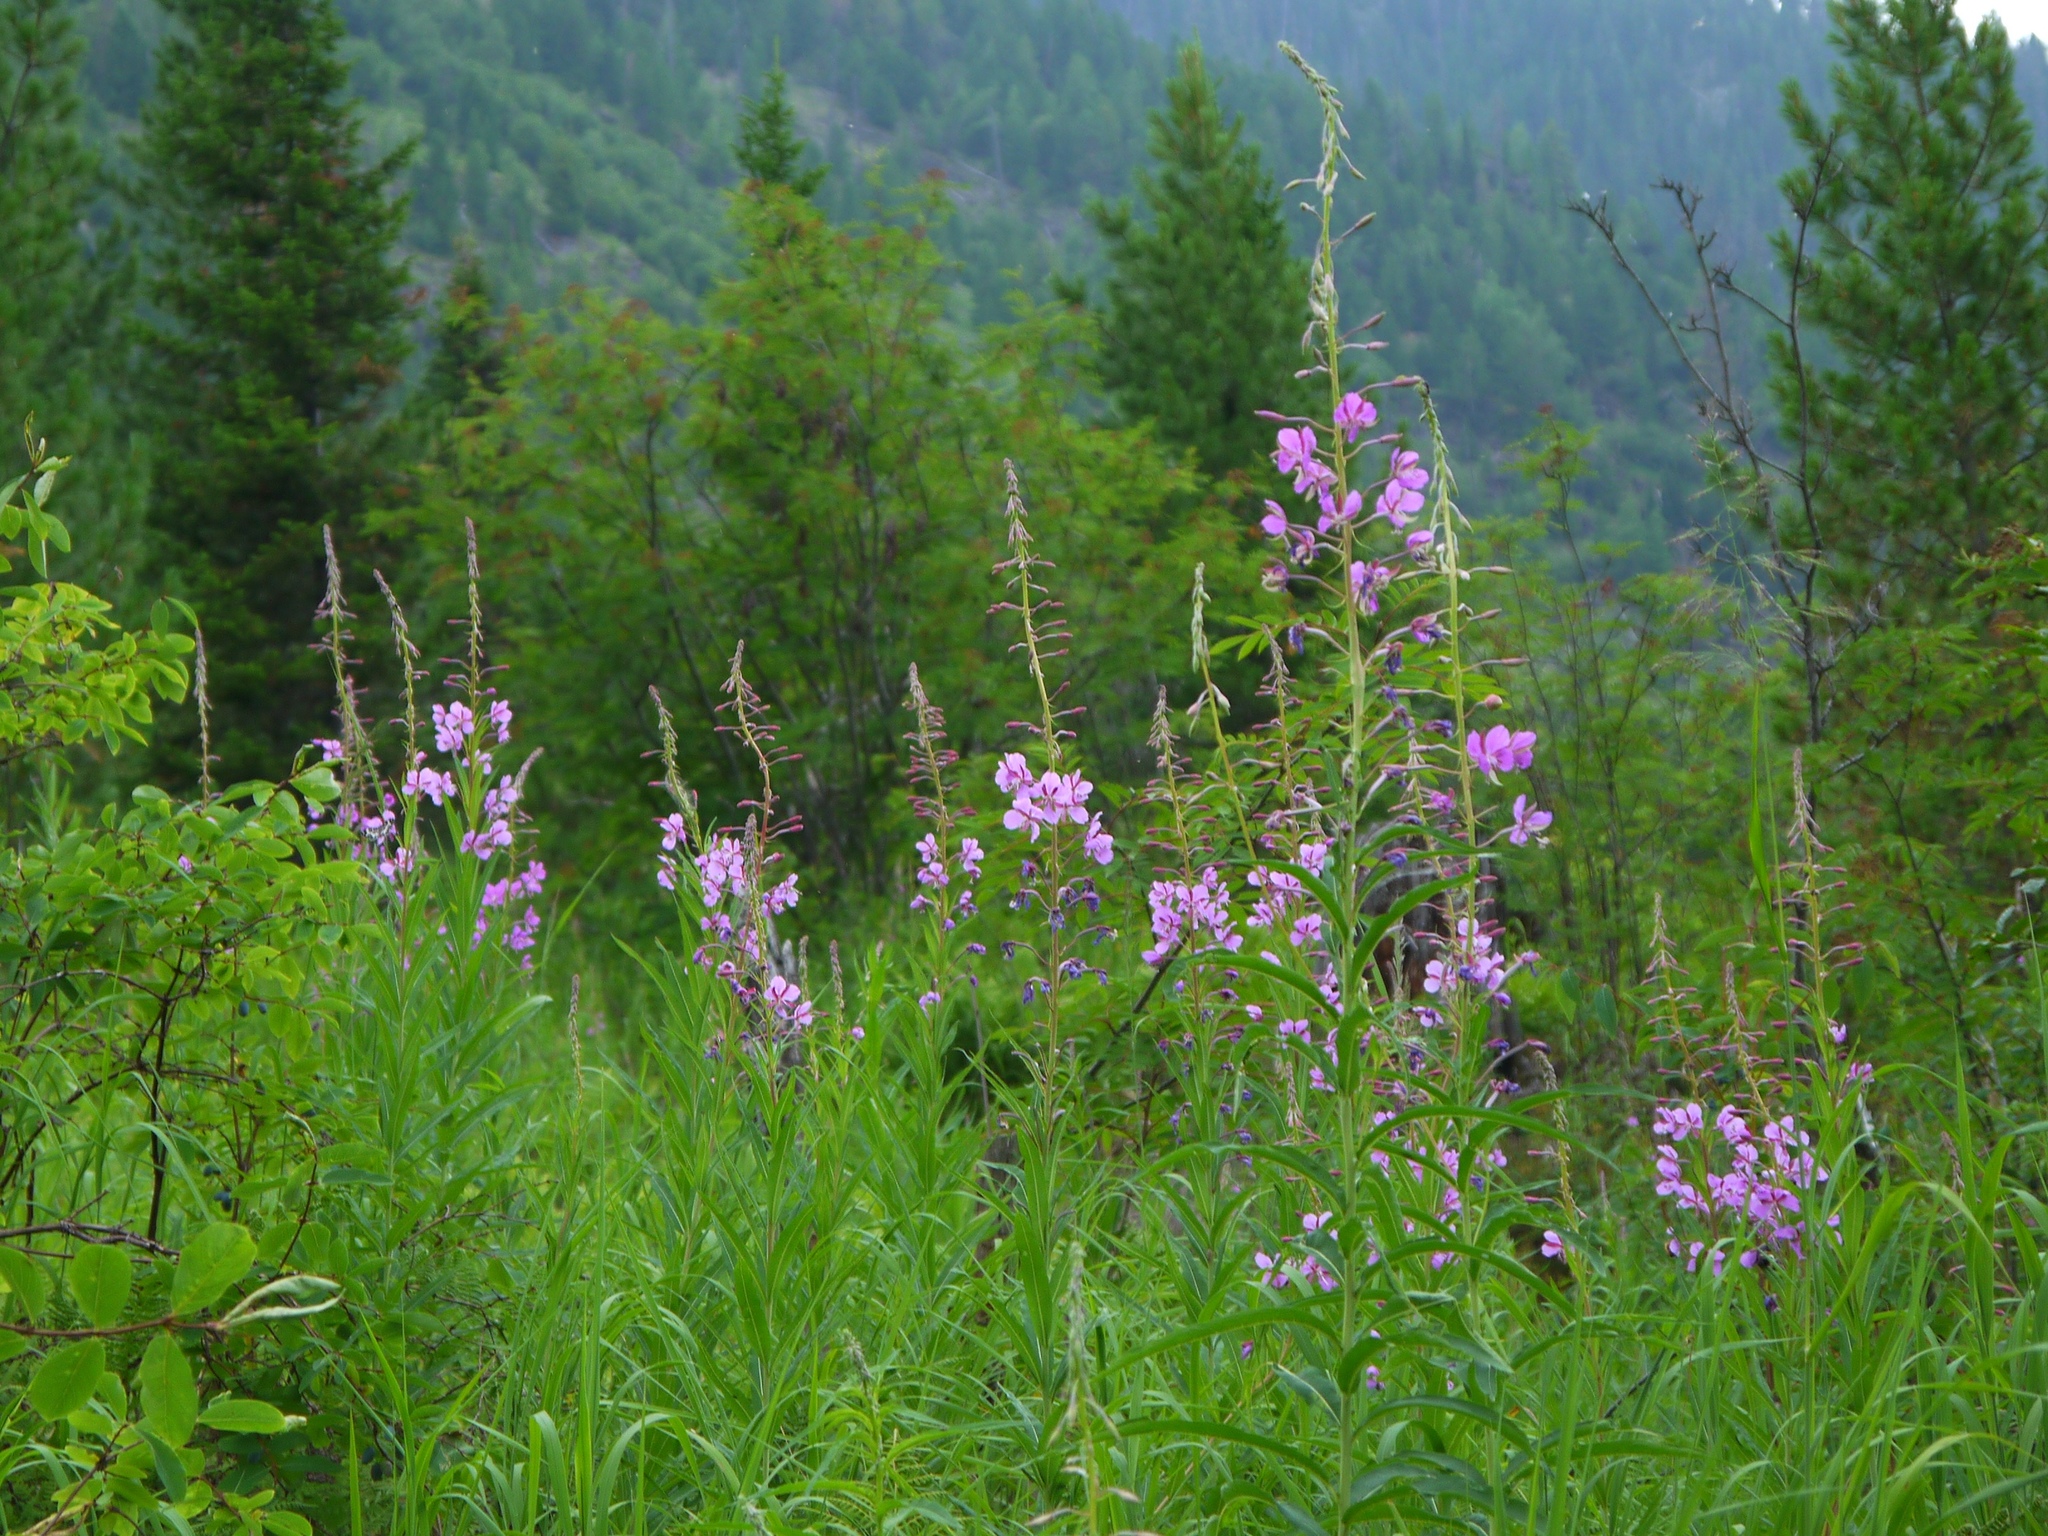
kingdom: Plantae
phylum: Tracheophyta
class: Magnoliopsida
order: Myrtales
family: Onagraceae
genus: Chamaenerion
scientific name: Chamaenerion angustifolium
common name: Fireweed
